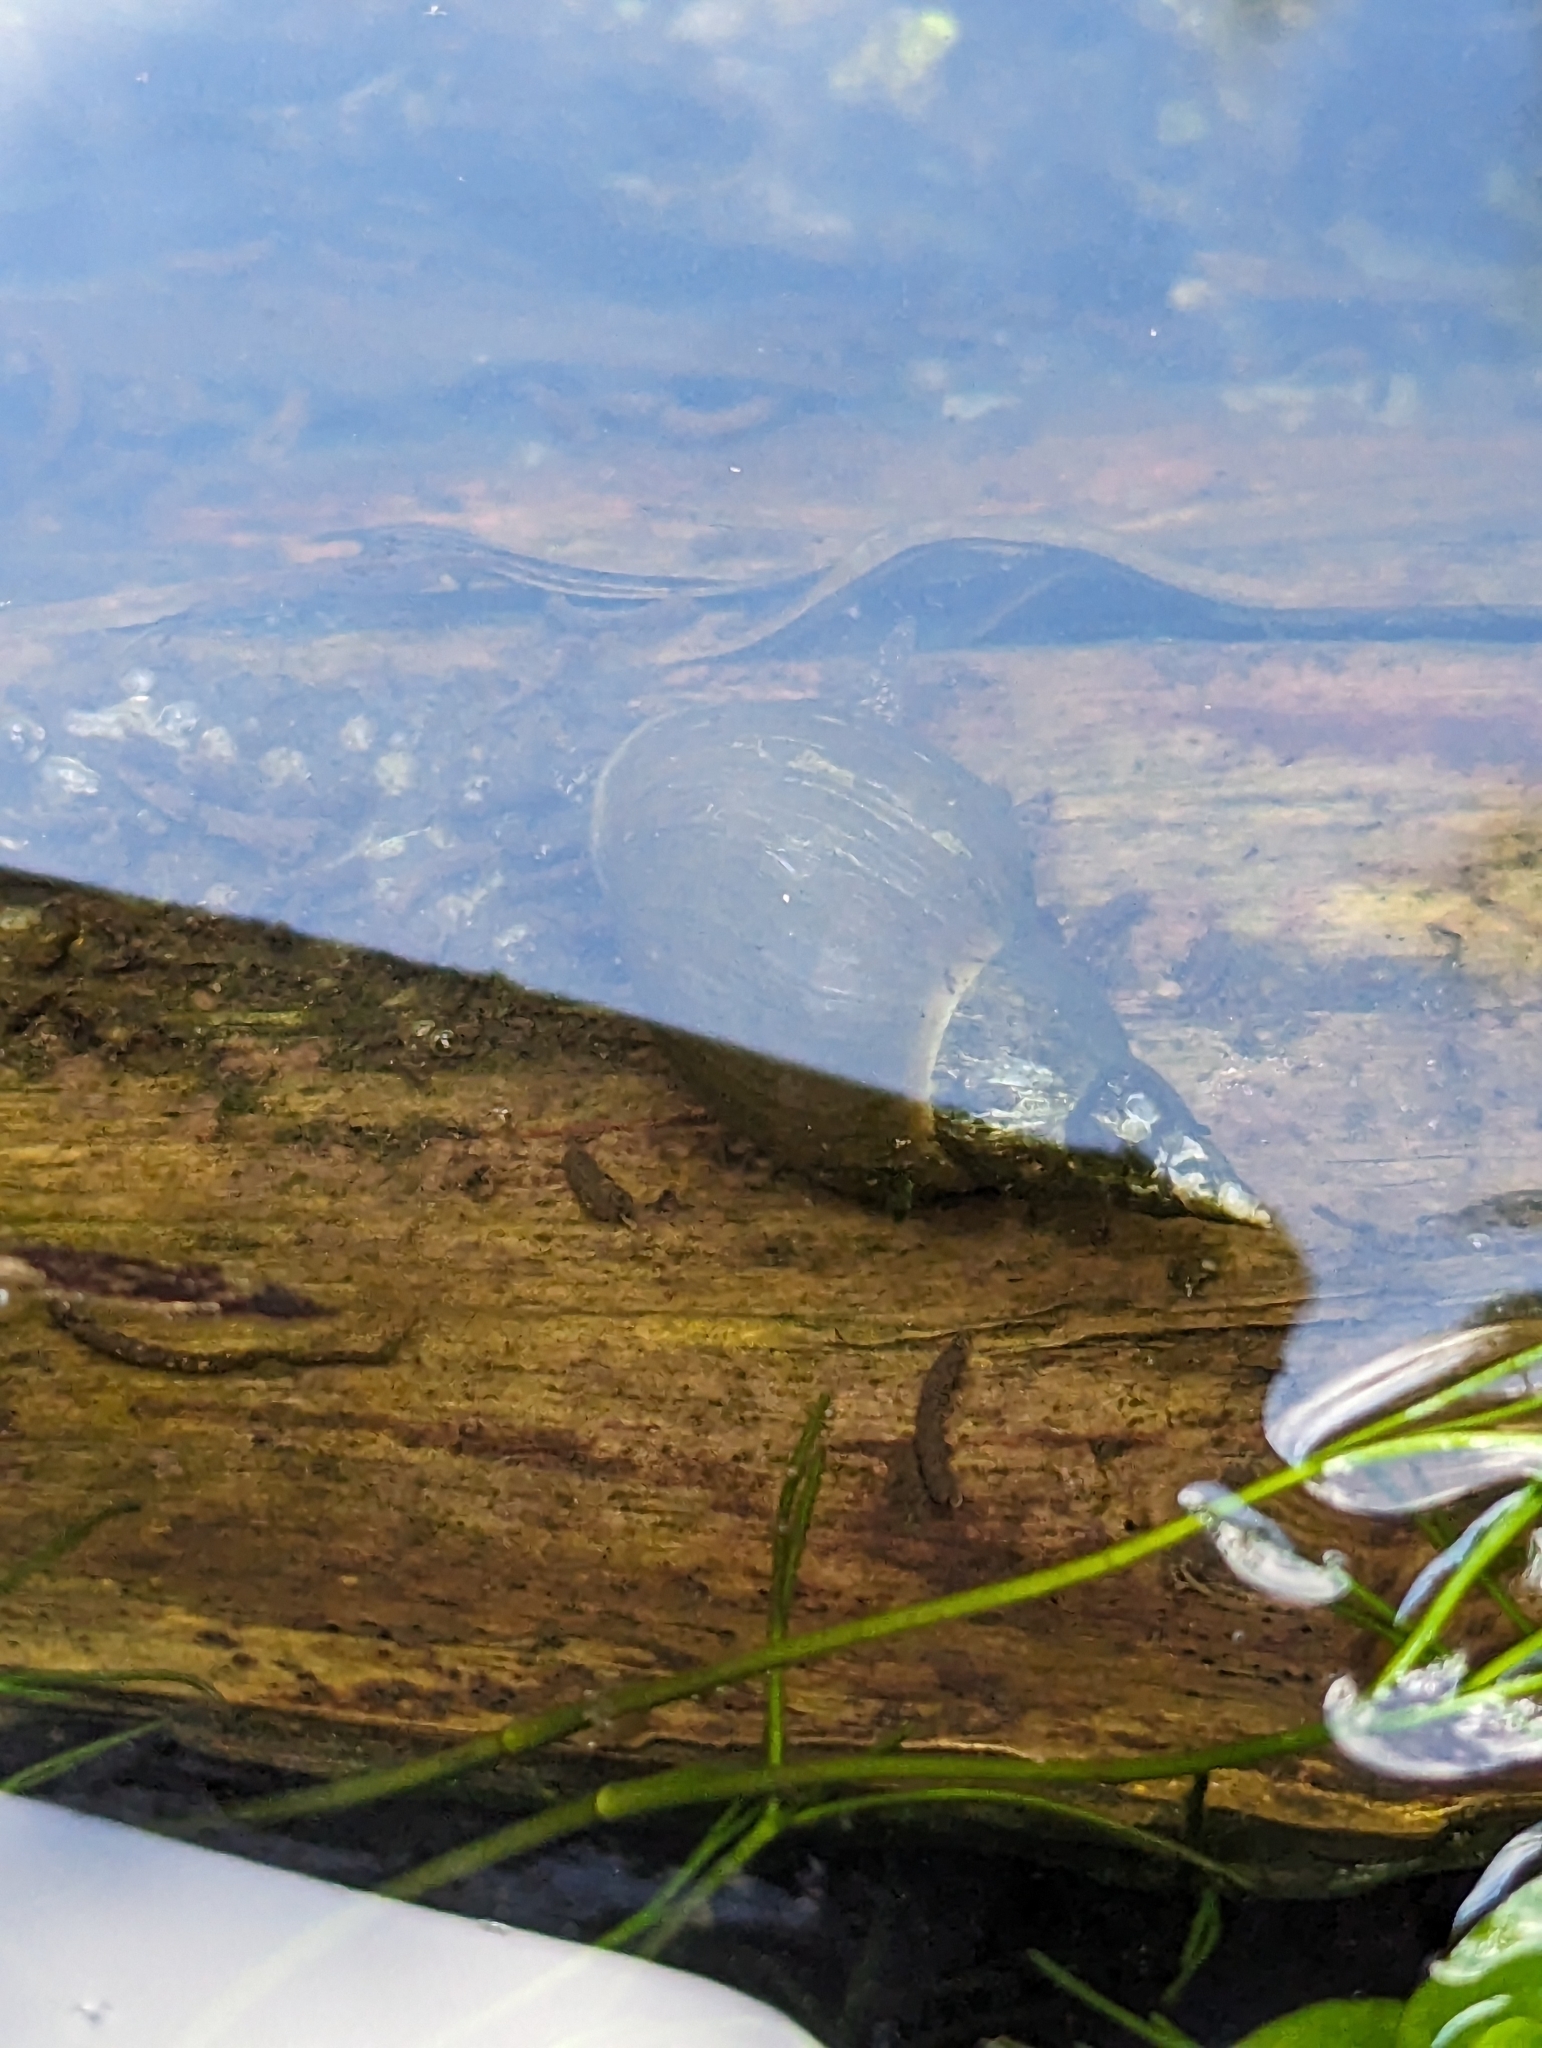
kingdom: Animalia
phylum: Mollusca
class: Gastropoda
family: Lymnaeidae
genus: Lymnaea
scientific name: Lymnaea stagnalis
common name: Great pond snail
